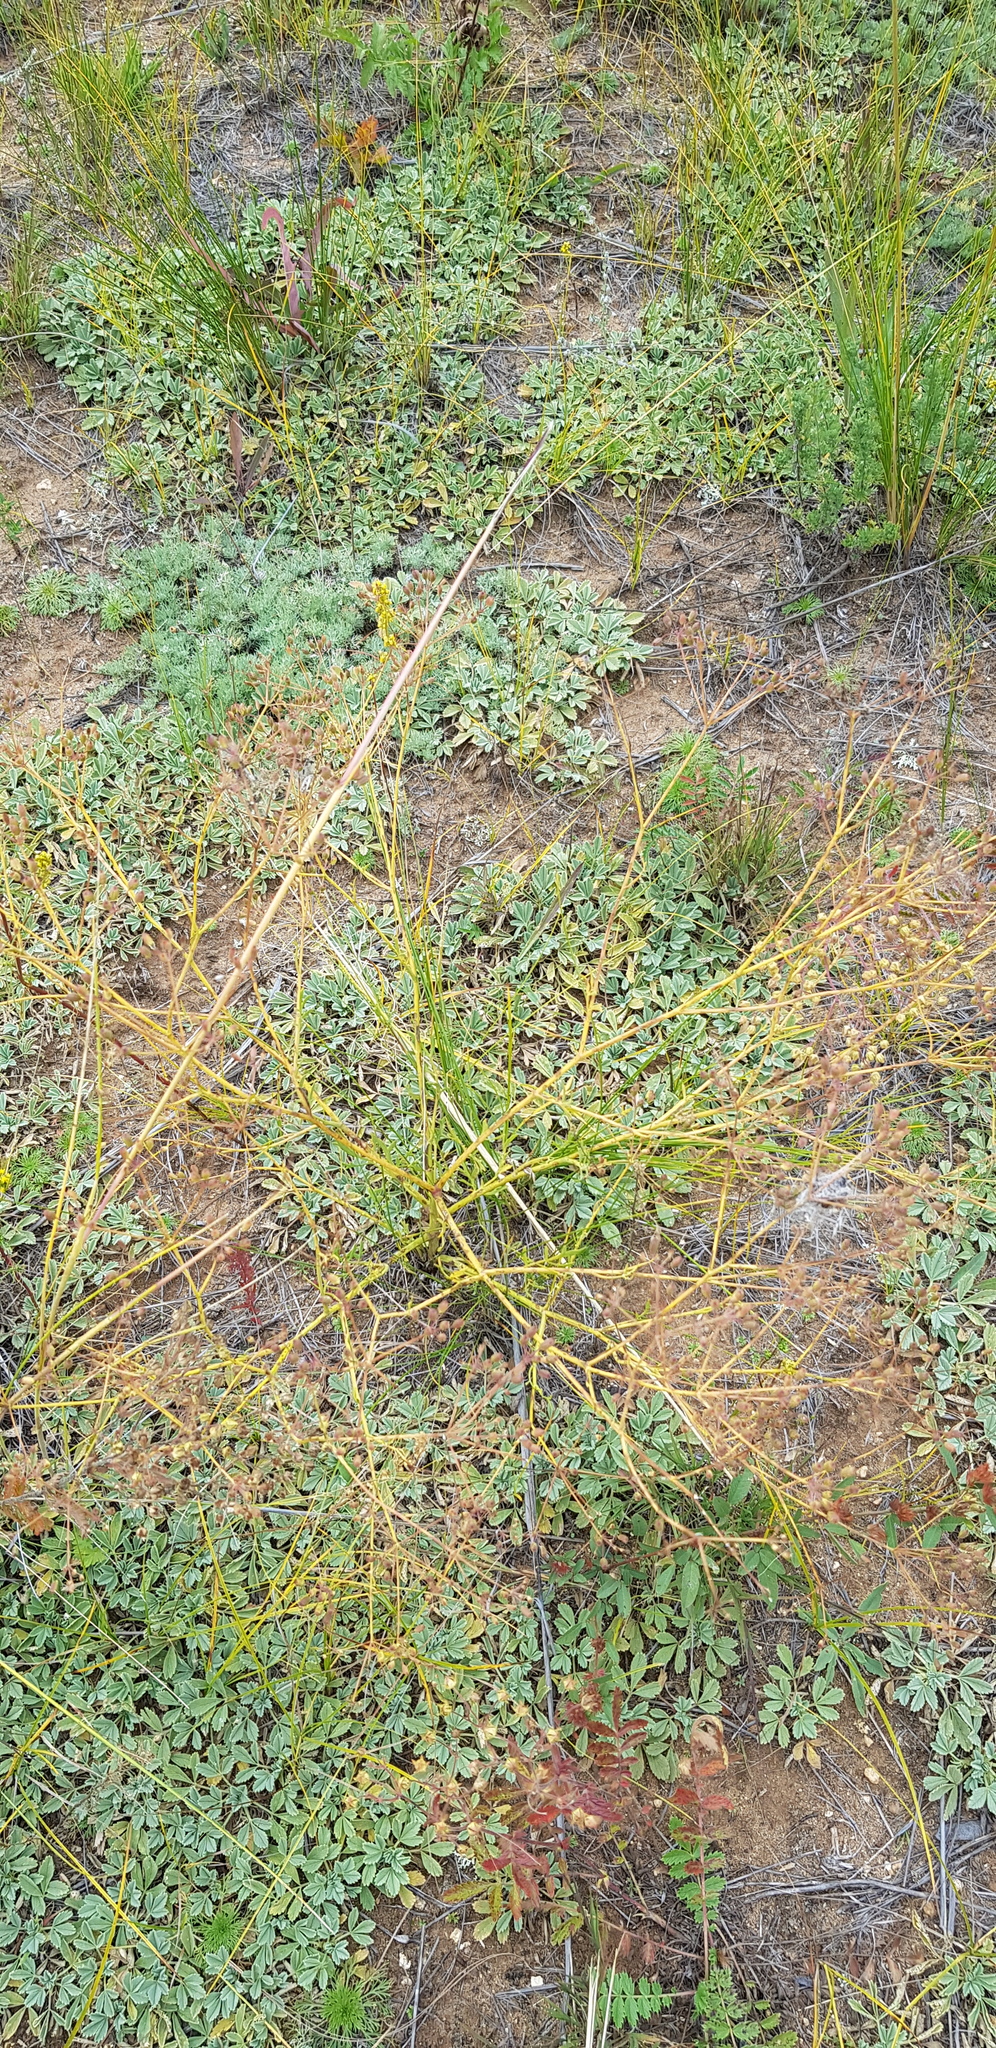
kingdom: Plantae
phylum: Tracheophyta
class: Magnoliopsida
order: Rosales
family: Rosaceae
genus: Potentilla
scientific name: Potentilla acaulis
